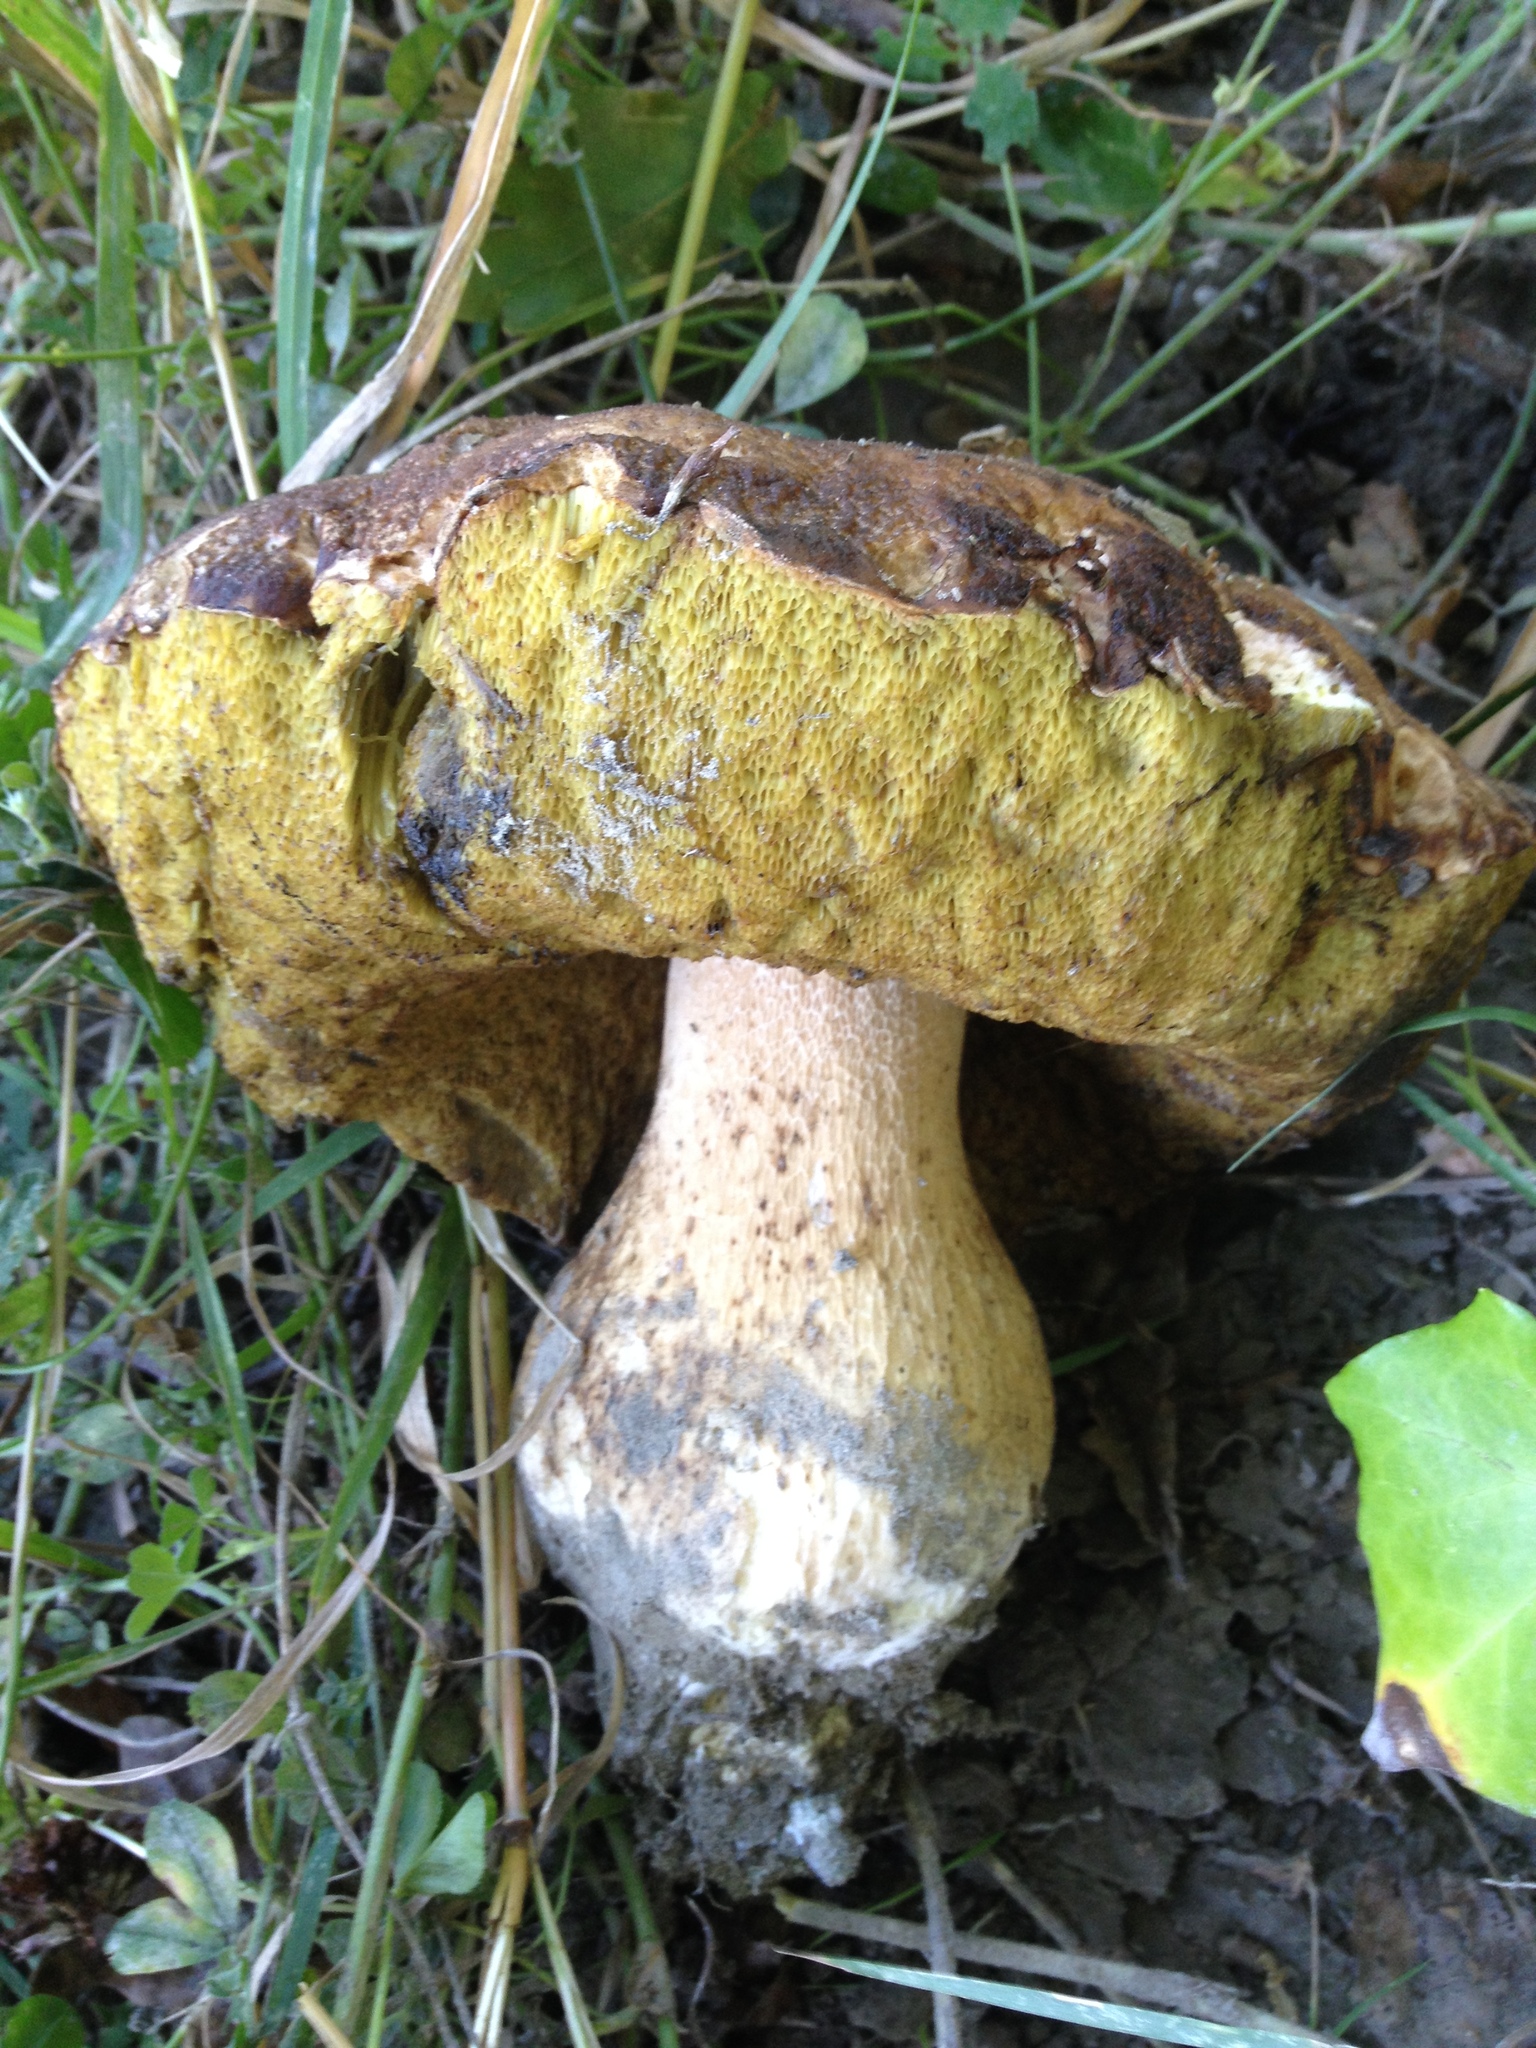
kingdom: Fungi
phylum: Basidiomycota
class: Agaricomycetes
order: Boletales
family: Boletaceae
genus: Boletus
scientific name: Boletus edulis
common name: Cep
